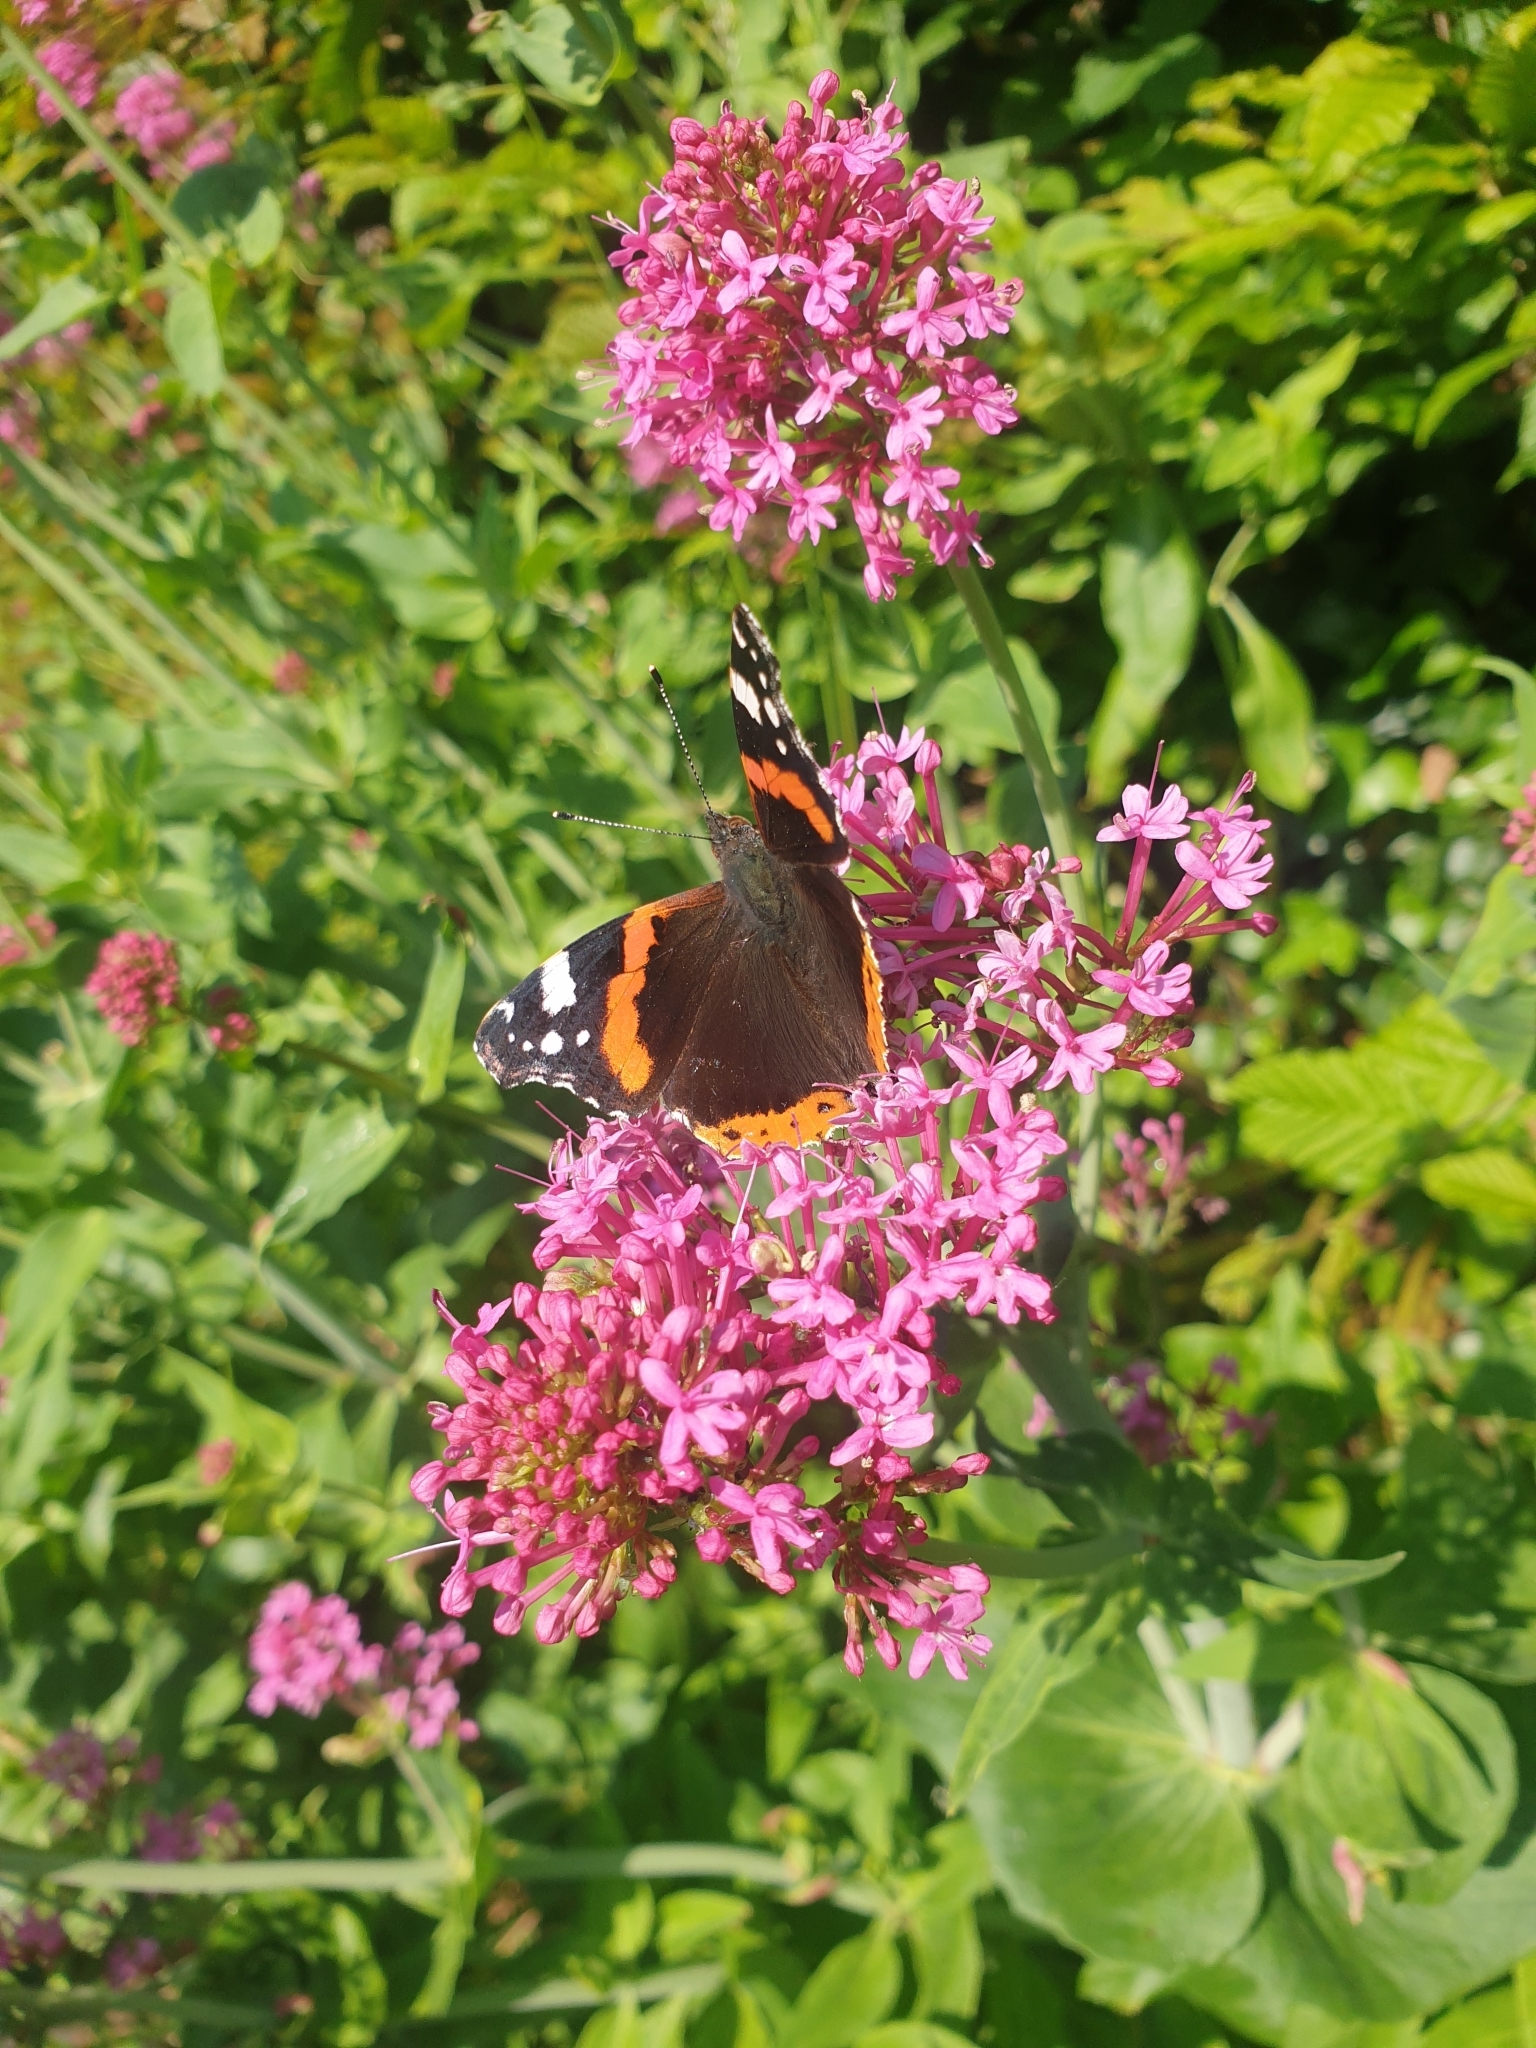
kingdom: Animalia
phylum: Arthropoda
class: Insecta
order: Lepidoptera
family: Nymphalidae
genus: Vanessa
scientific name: Vanessa atalanta
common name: Red admiral
